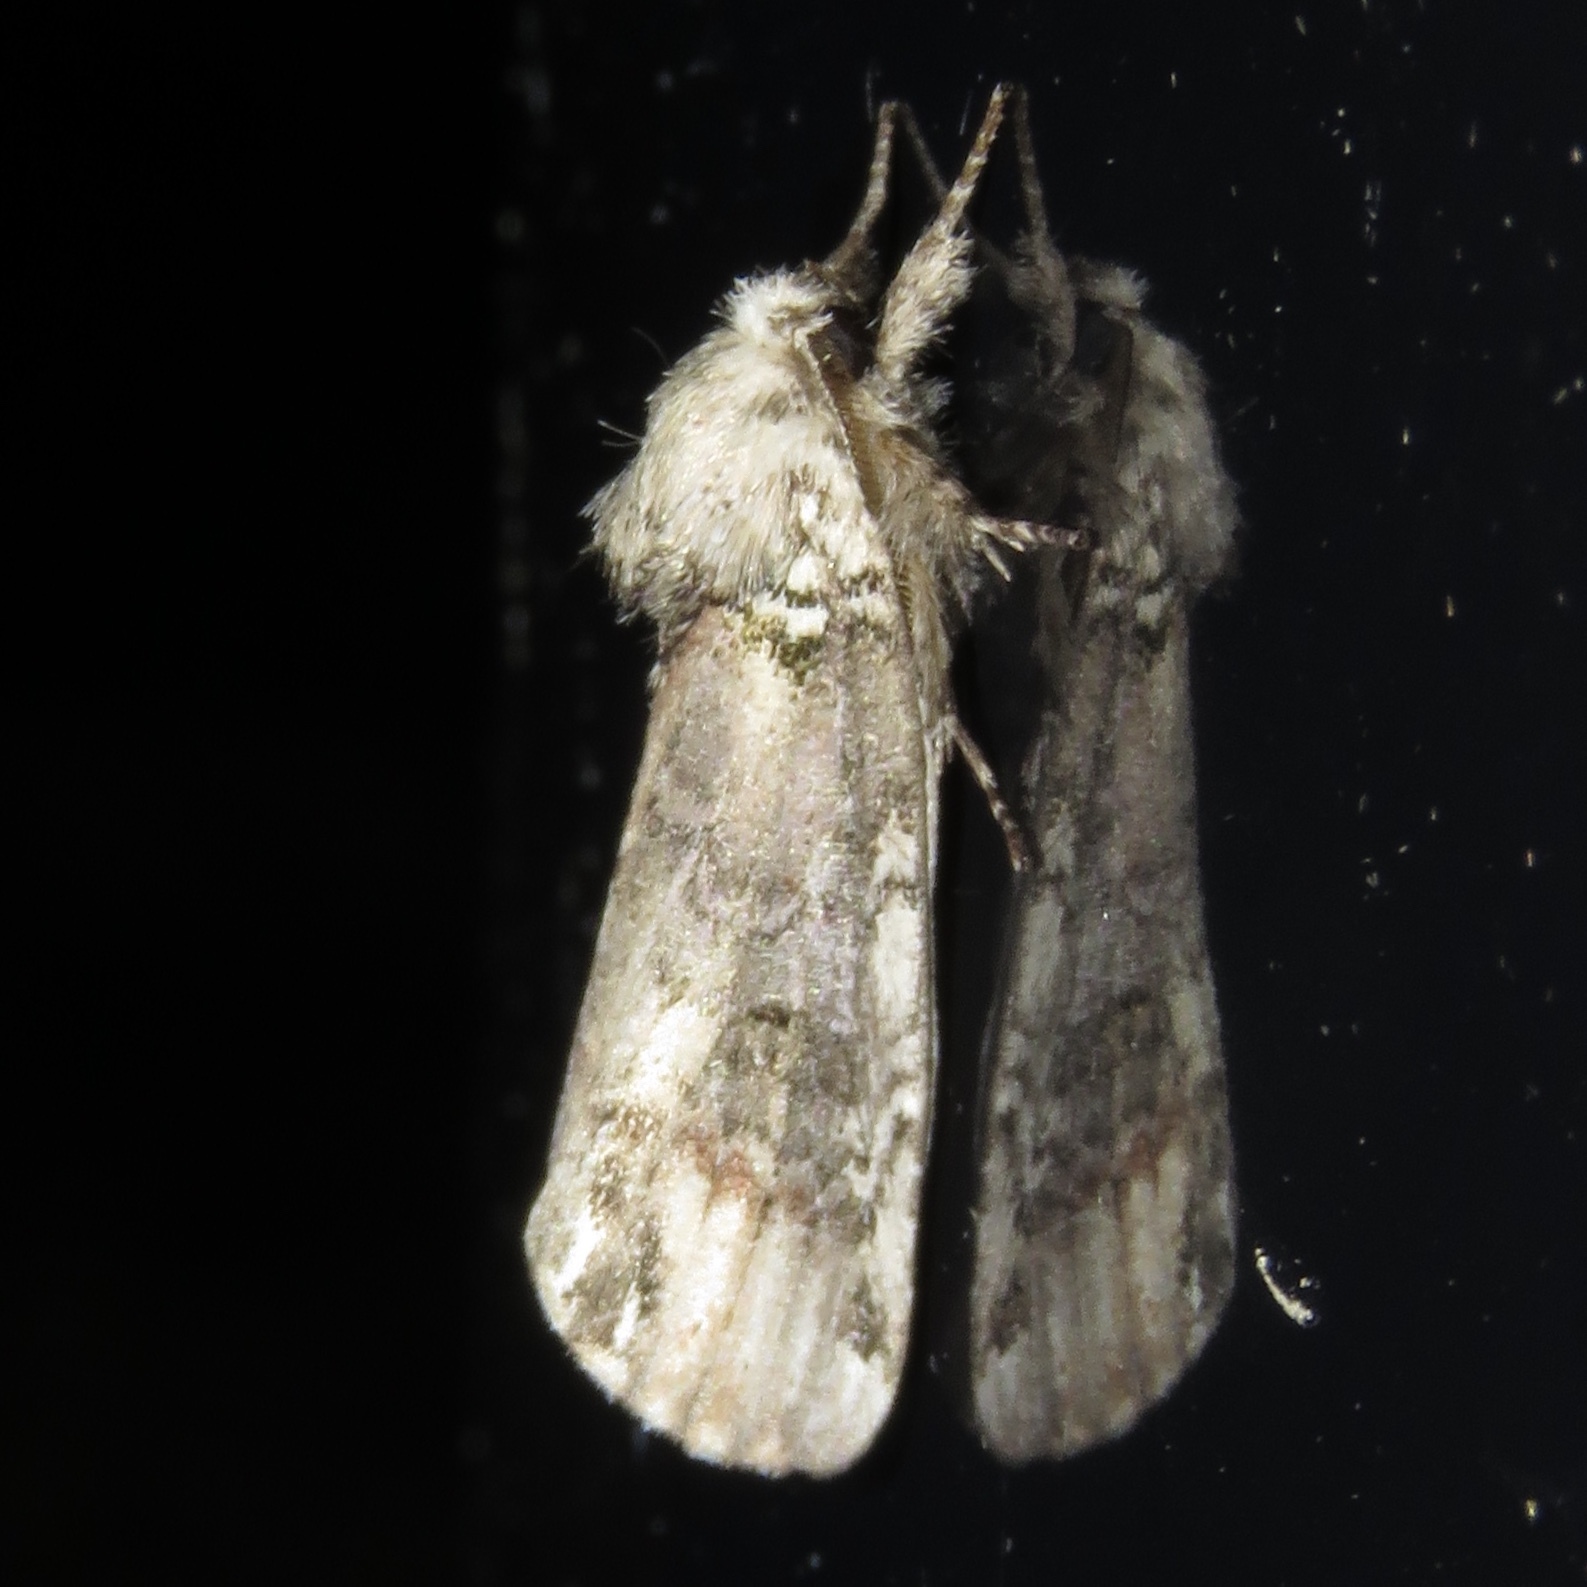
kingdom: Animalia
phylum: Arthropoda
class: Insecta
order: Lepidoptera
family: Notodontidae
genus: Schizura
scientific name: Schizura
